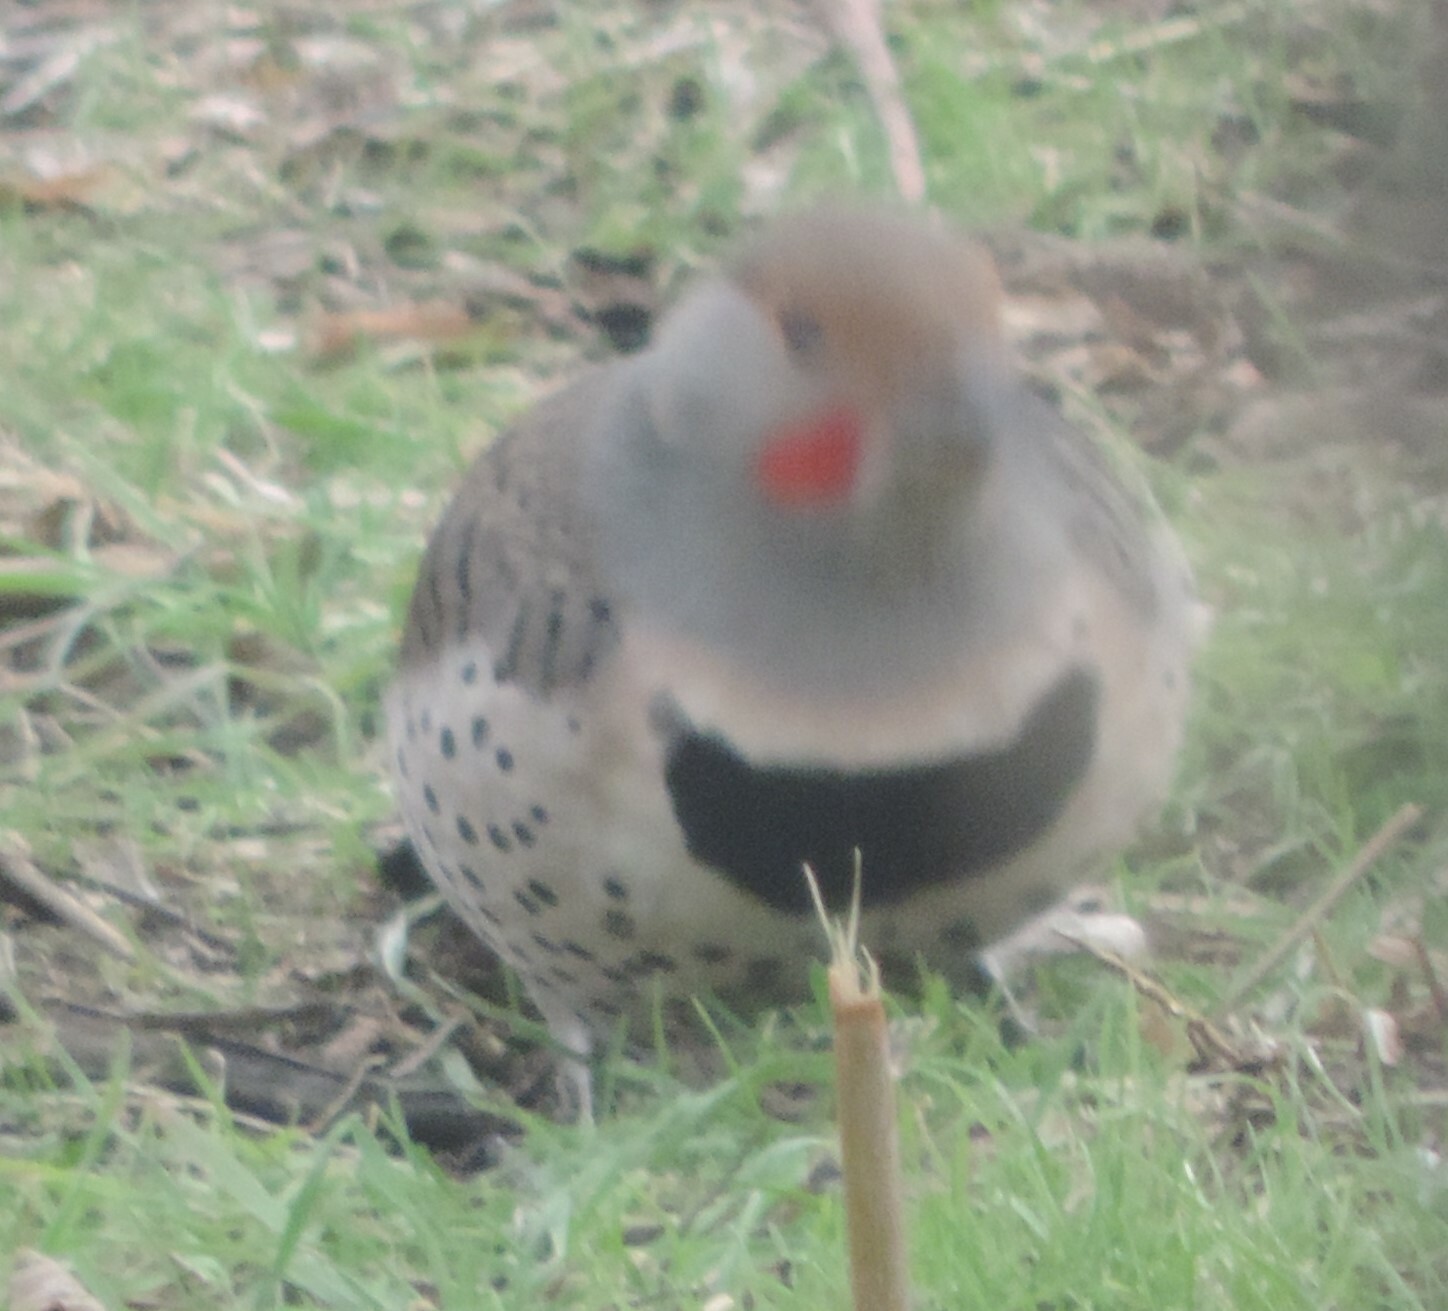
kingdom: Animalia
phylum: Chordata
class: Aves
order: Piciformes
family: Picidae
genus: Colaptes
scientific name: Colaptes auratus
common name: Northern flicker
